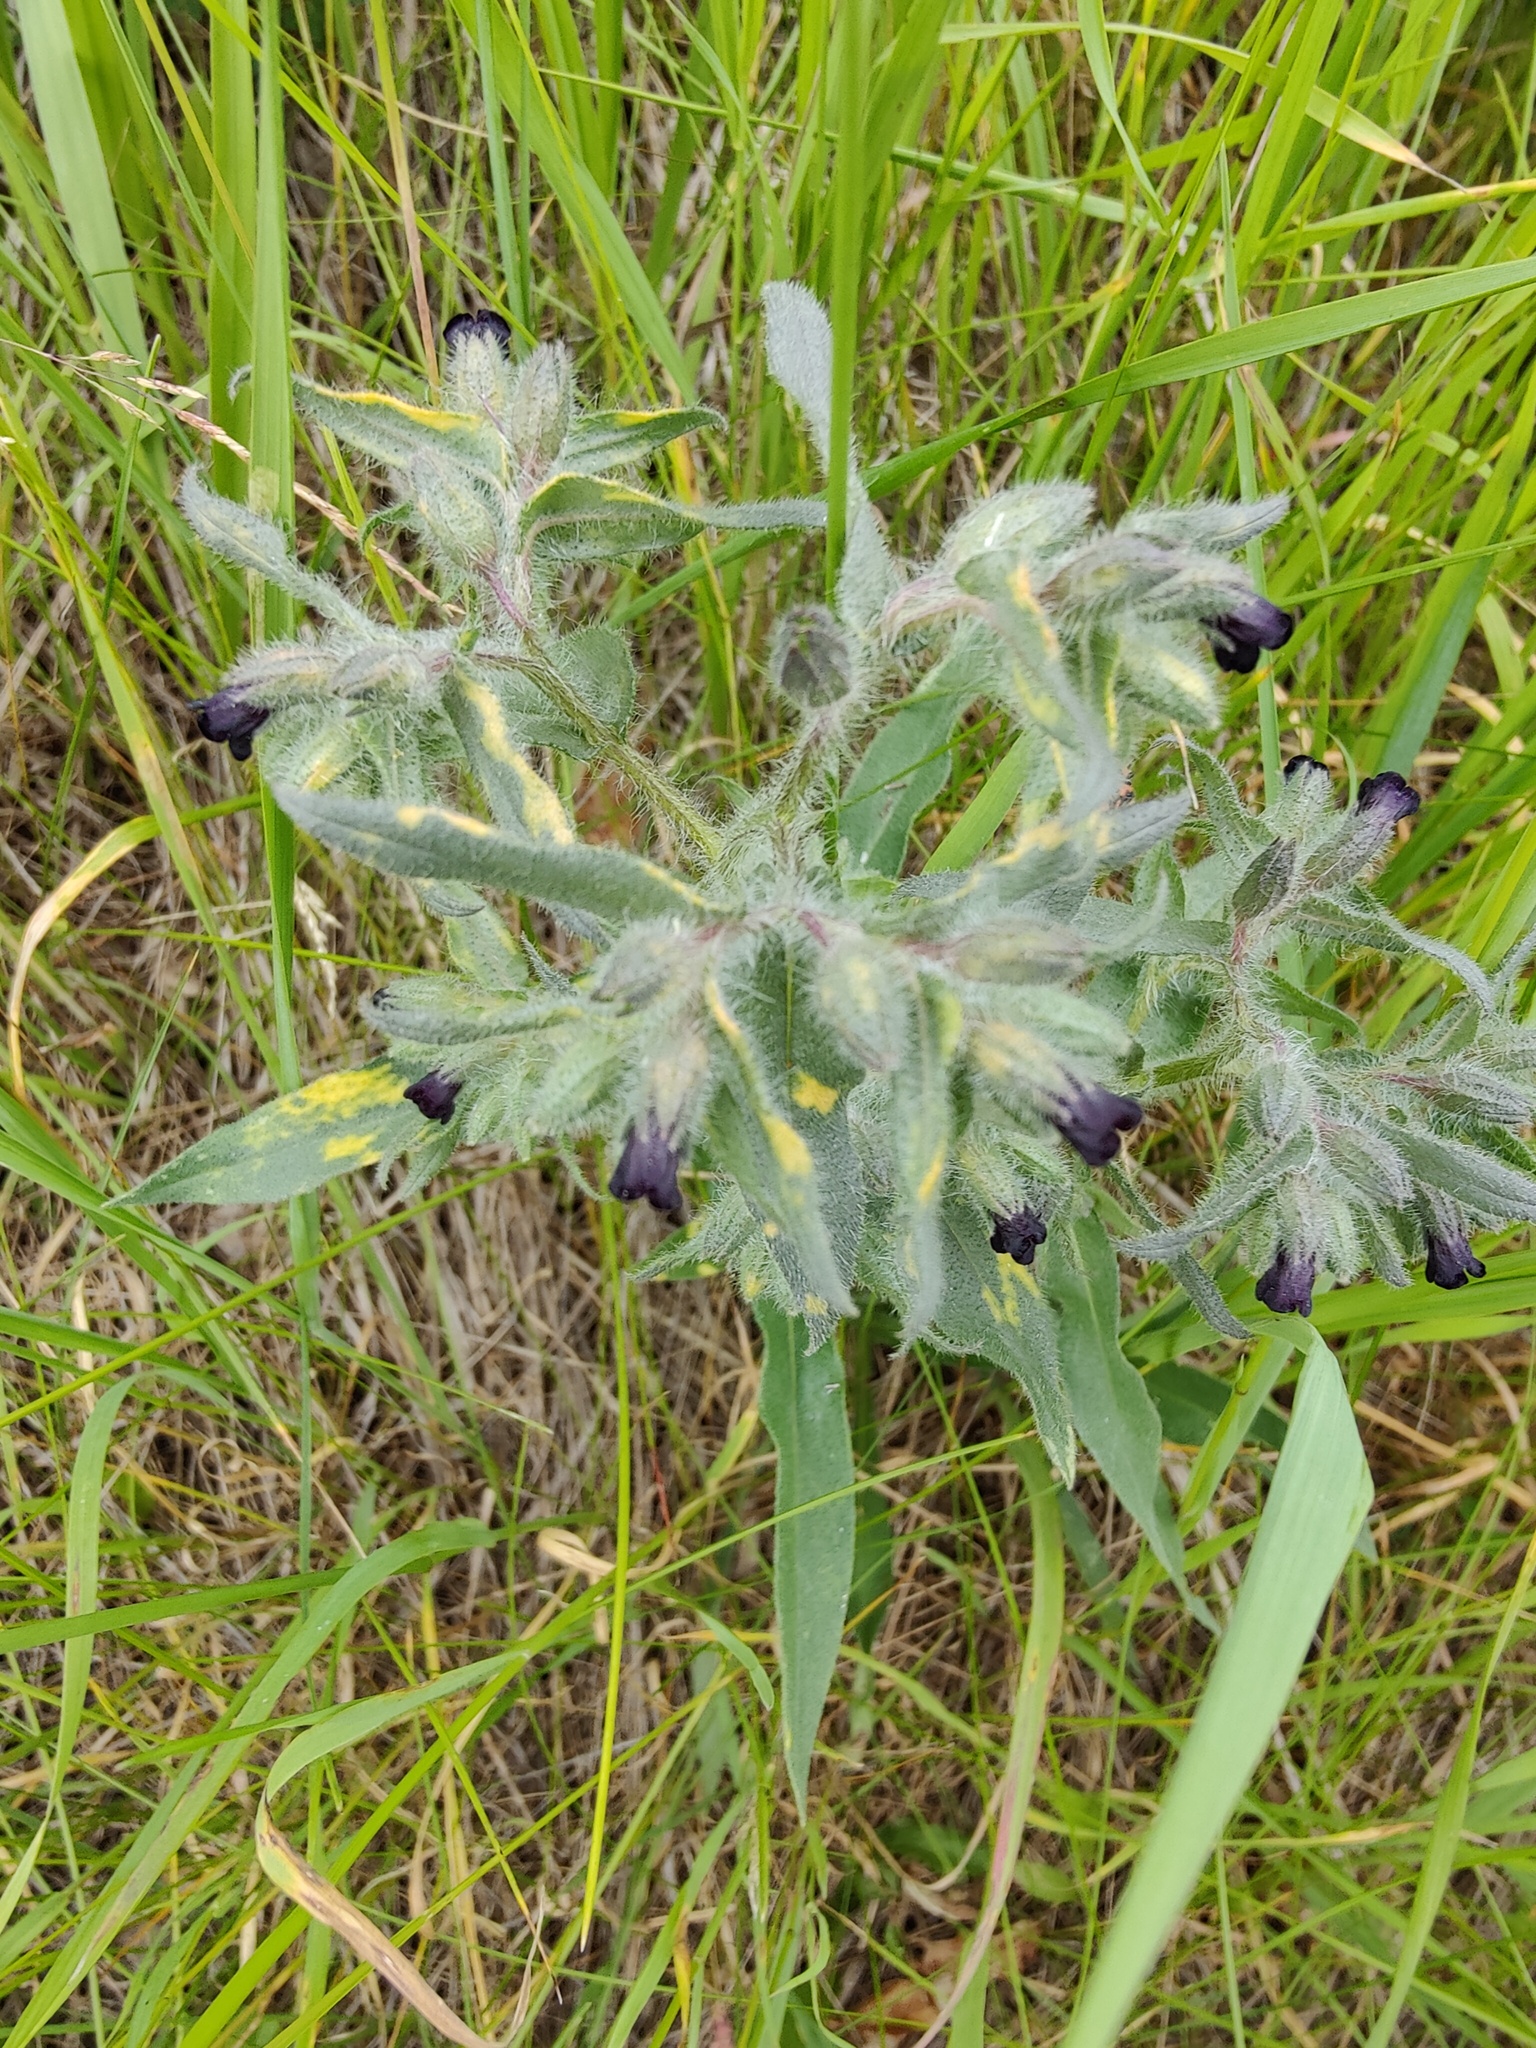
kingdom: Plantae
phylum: Tracheophyta
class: Magnoliopsida
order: Boraginales
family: Boraginaceae
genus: Nonea
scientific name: Nonea pulla
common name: Brown nonea
